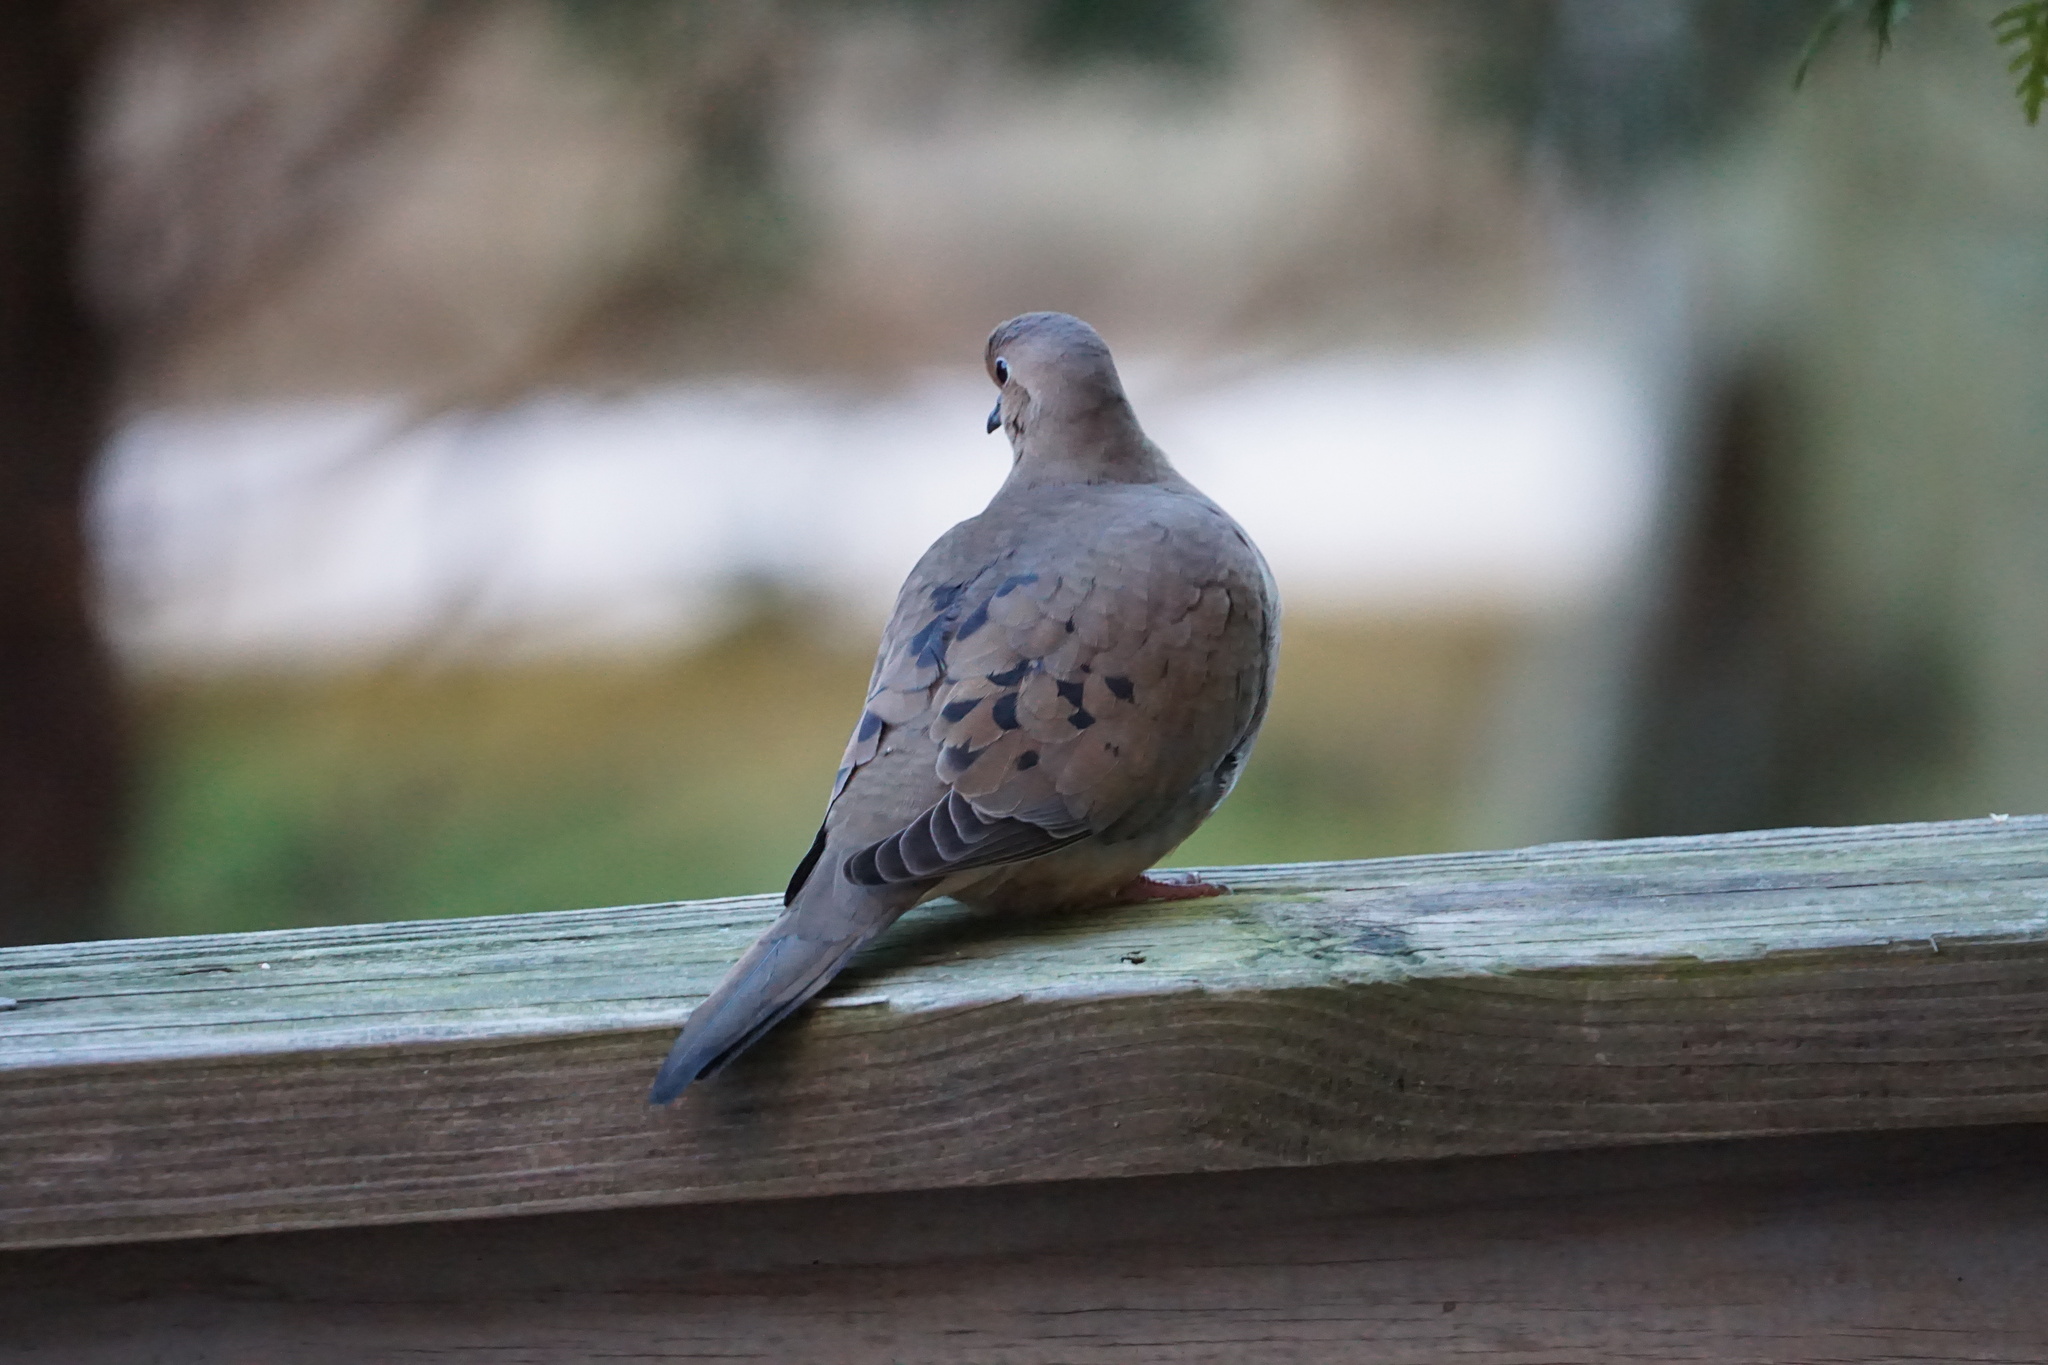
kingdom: Animalia
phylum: Chordata
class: Aves
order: Columbiformes
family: Columbidae
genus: Zenaida
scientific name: Zenaida macroura
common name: Mourning dove
